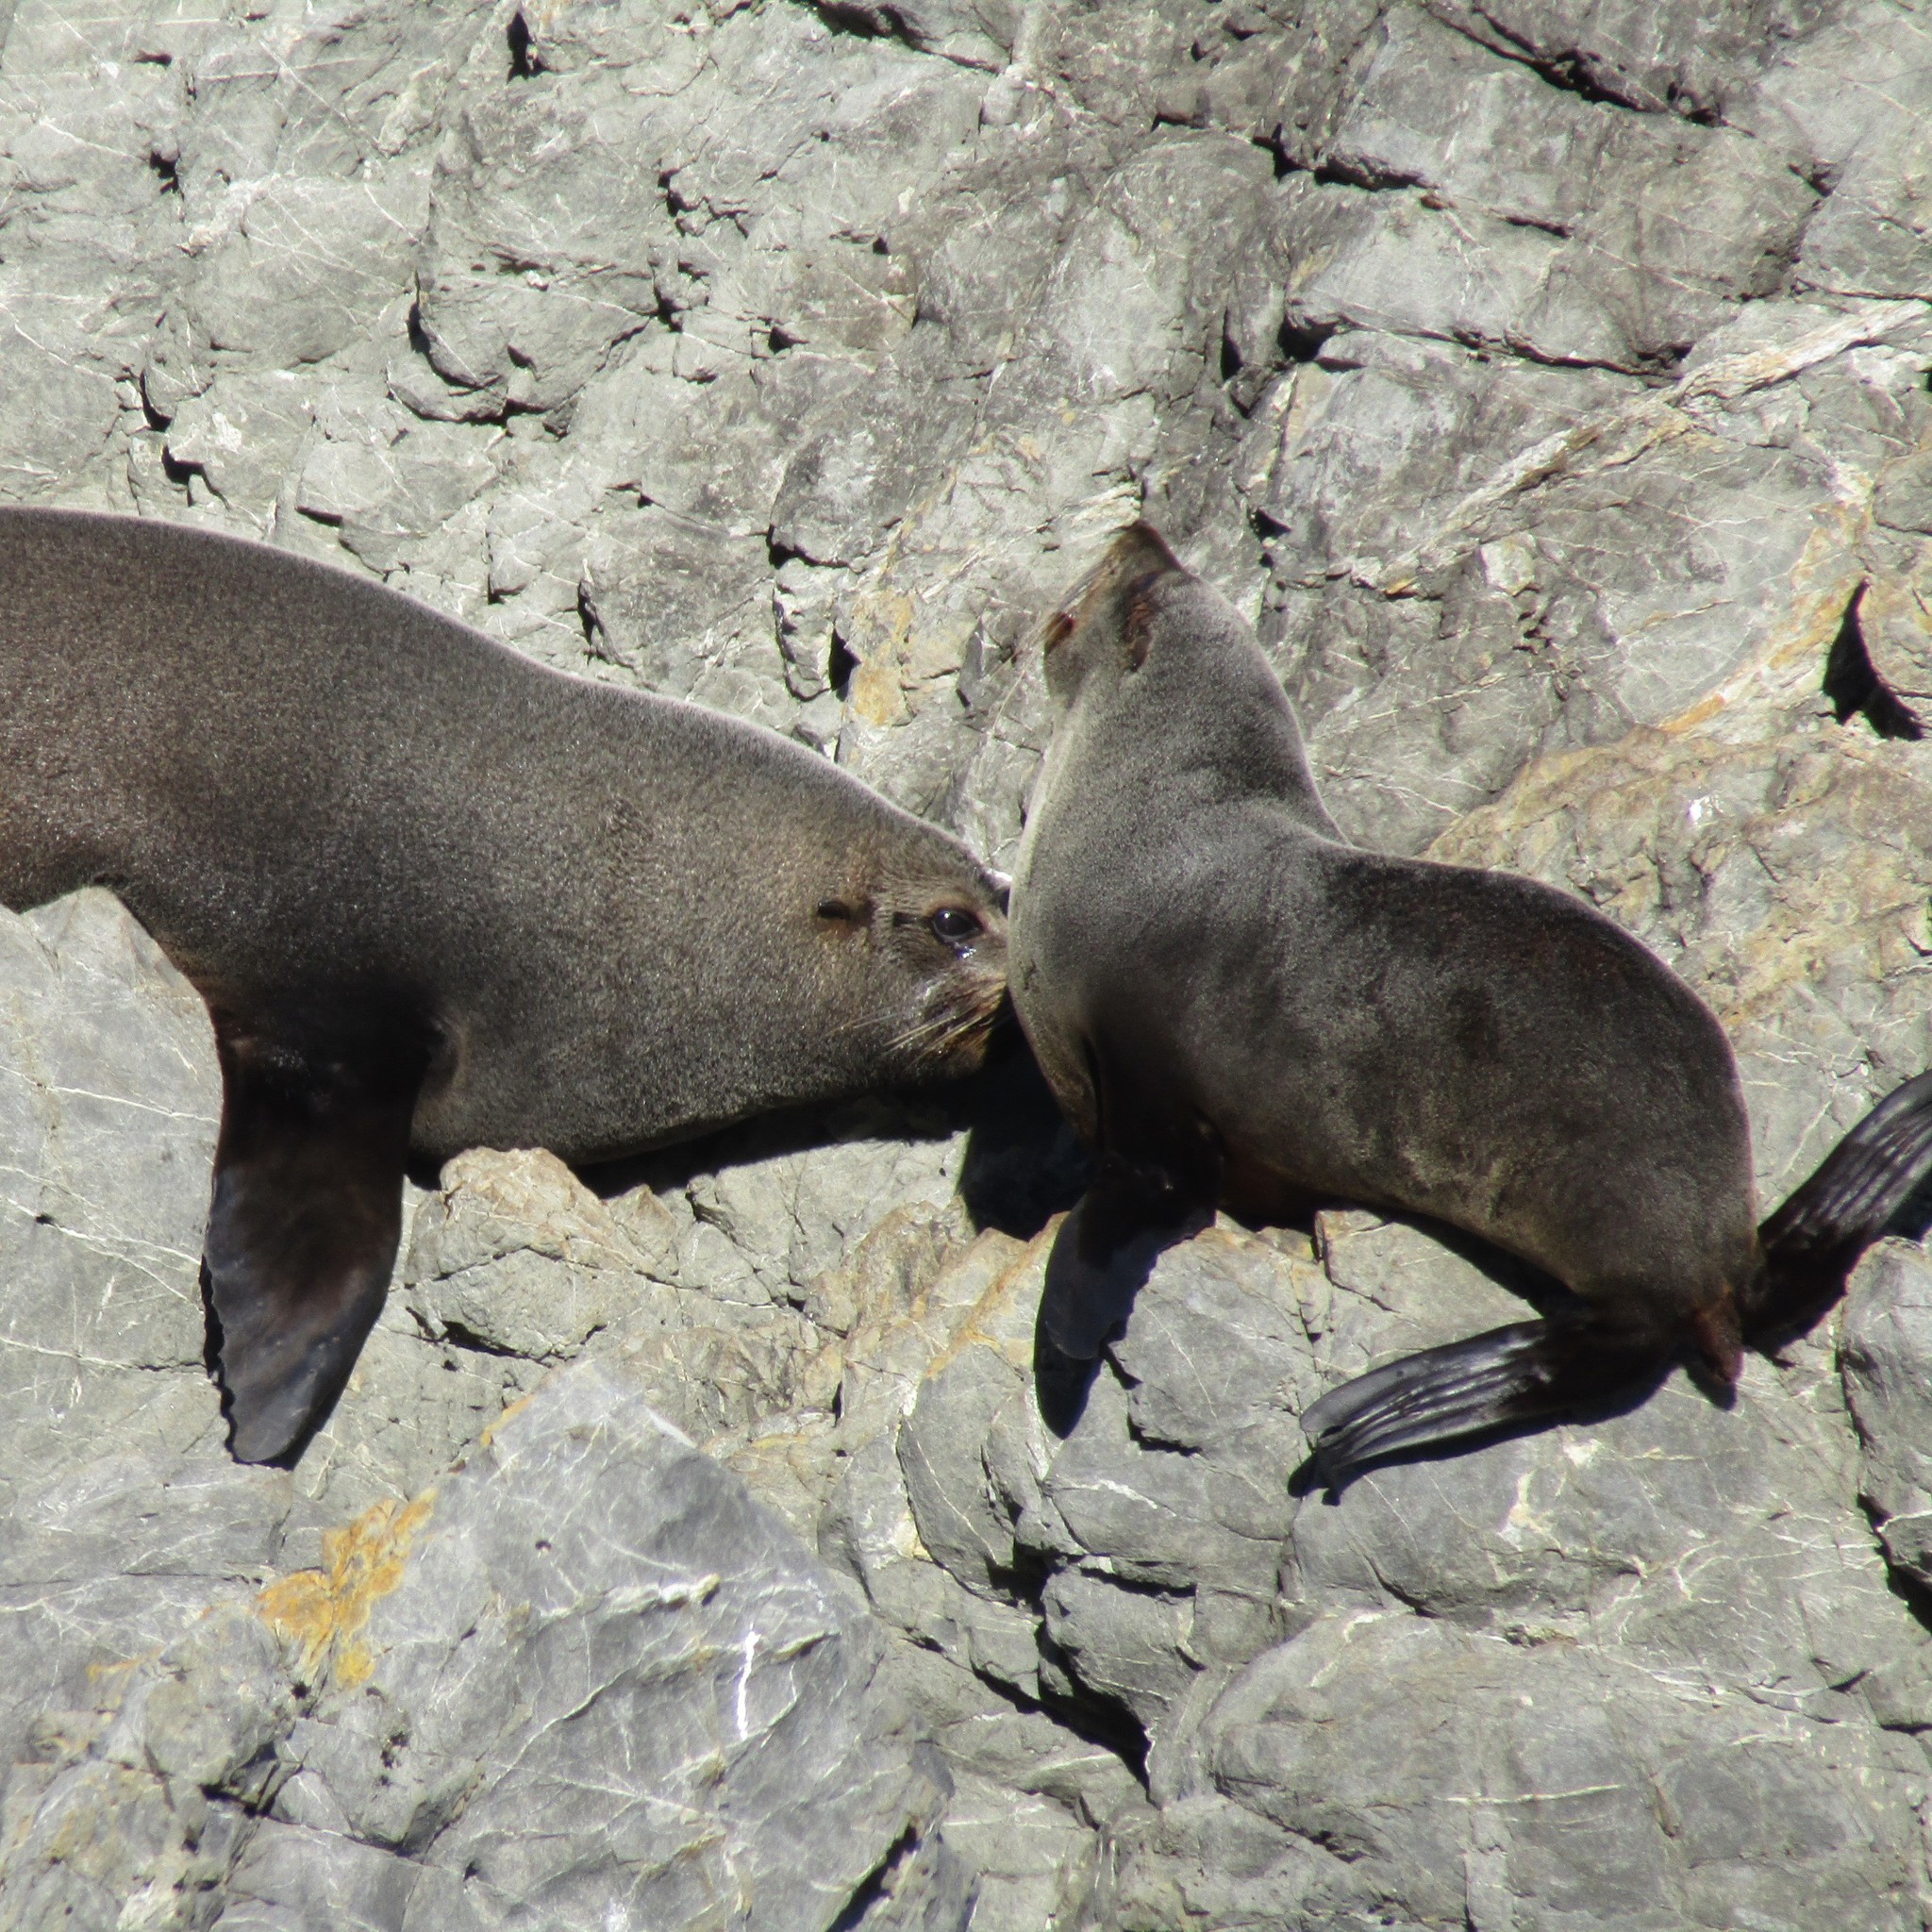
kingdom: Animalia
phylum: Chordata
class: Mammalia
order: Carnivora
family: Otariidae
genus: Arctocephalus
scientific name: Arctocephalus forsteri
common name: New zealand fur seal
